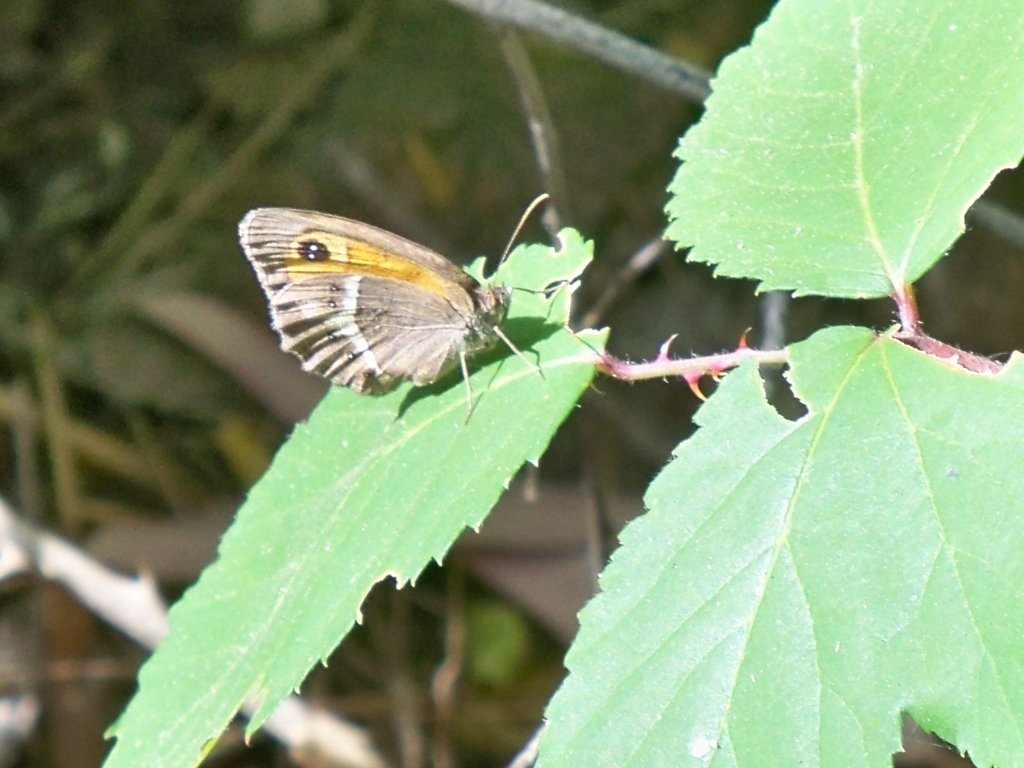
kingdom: Animalia
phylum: Arthropoda
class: Insecta
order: Lepidoptera
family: Nymphalidae
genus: Pyronia
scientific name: Pyronia bathseba
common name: Spanish gatekeeper
